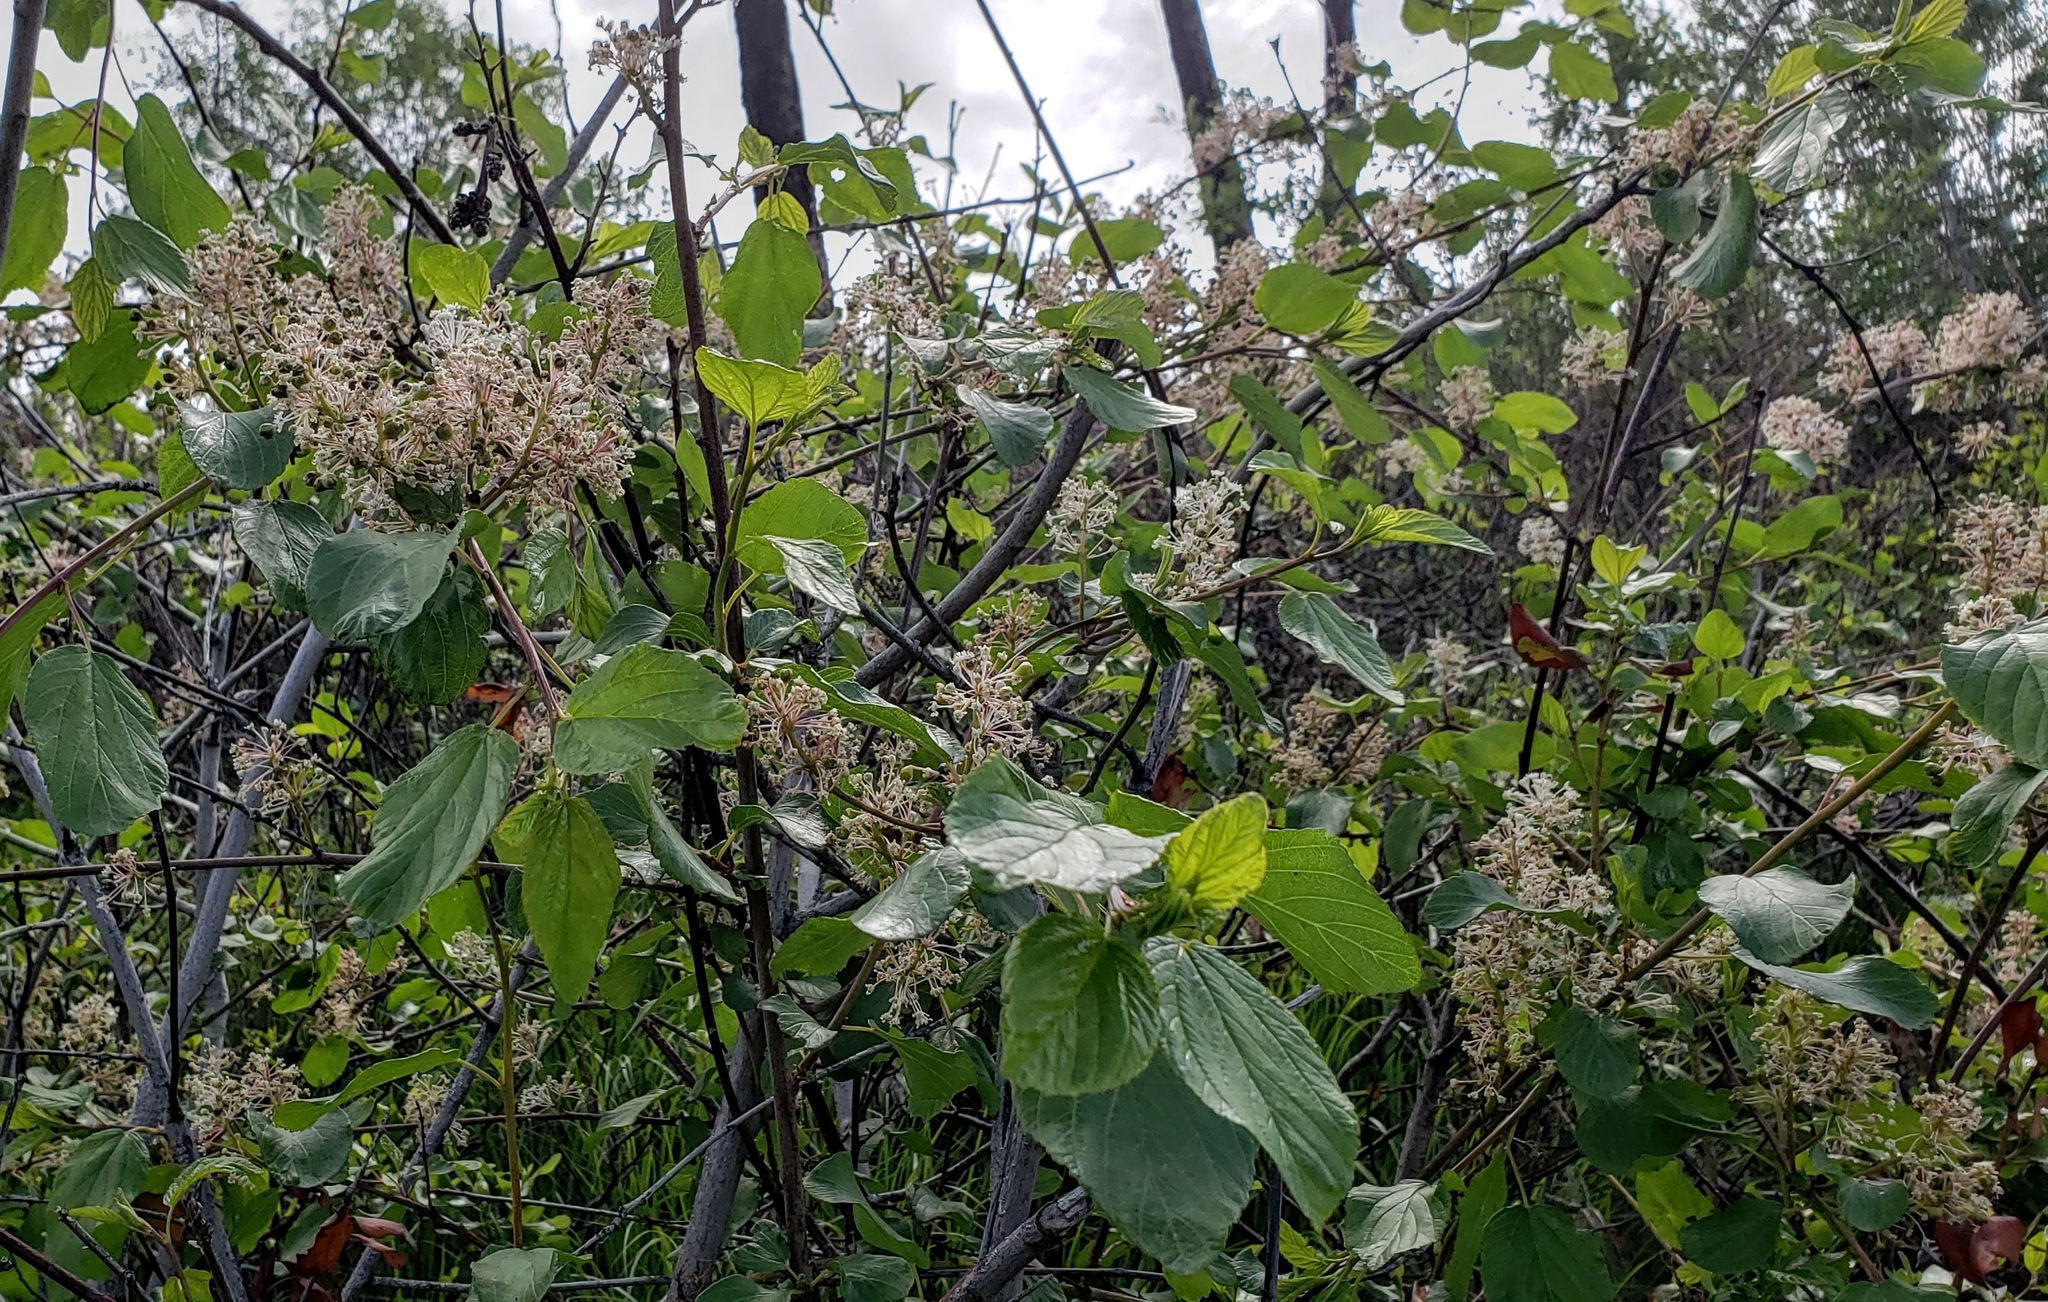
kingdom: Plantae
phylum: Tracheophyta
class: Magnoliopsida
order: Rosales
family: Rhamnaceae
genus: Ceanothus
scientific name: Ceanothus sanguineus
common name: Teatree
